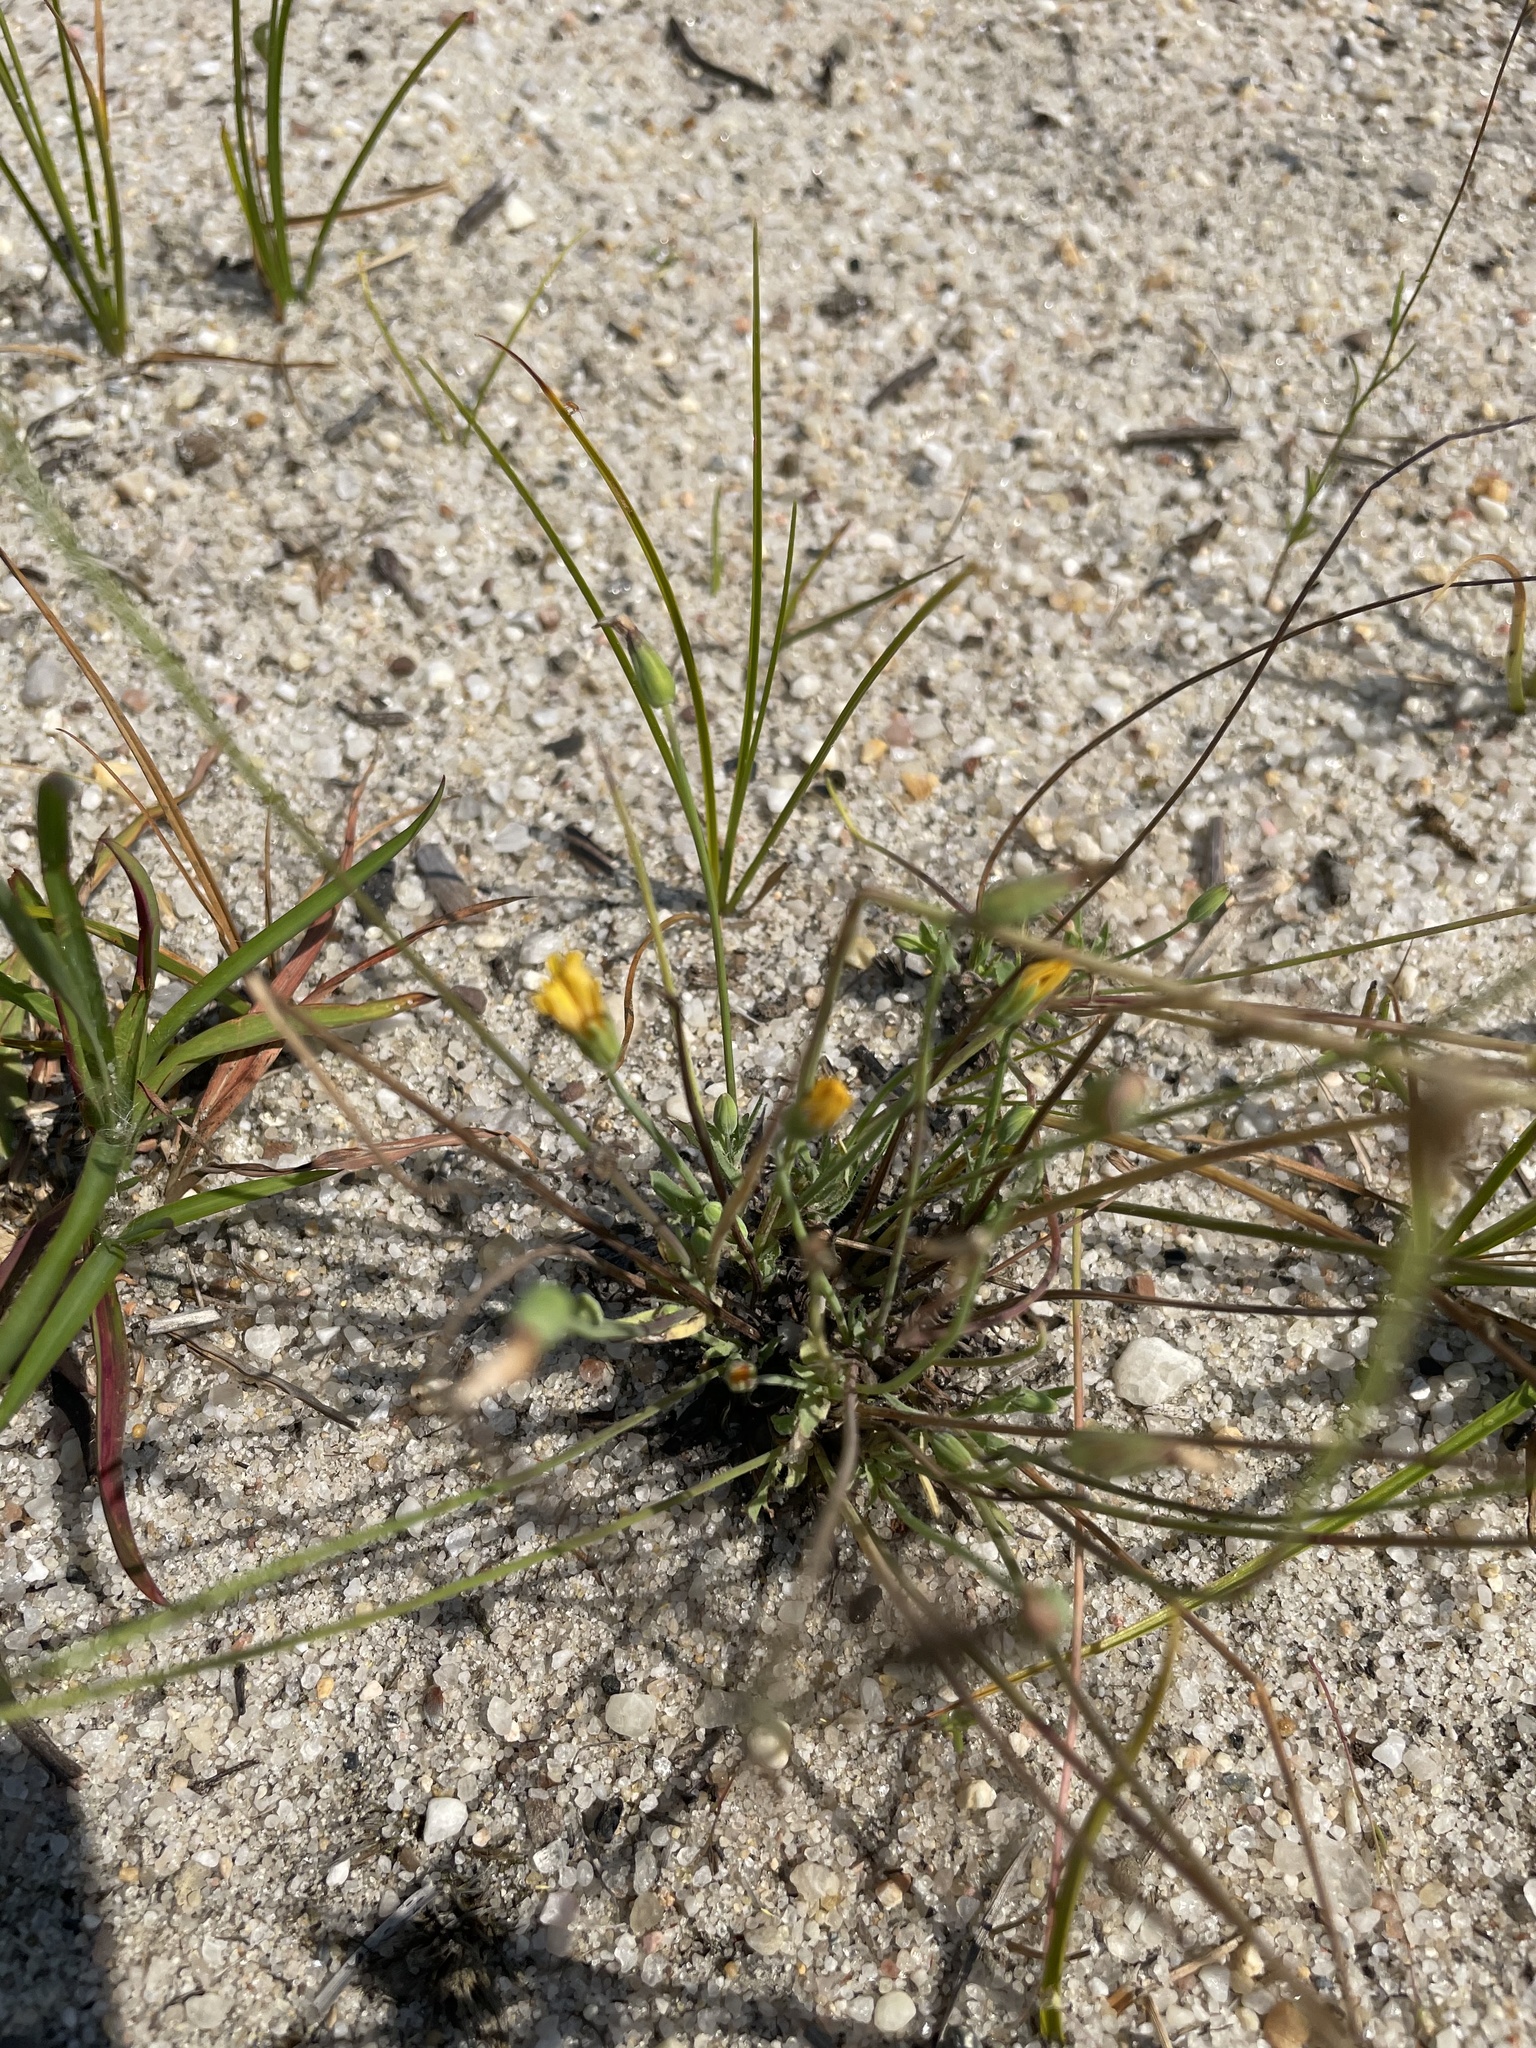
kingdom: Plantae
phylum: Tracheophyta
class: Magnoliopsida
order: Asterales
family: Asteraceae
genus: Krigia
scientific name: Krigia virginica
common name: Virginia dwarf-dandelion
